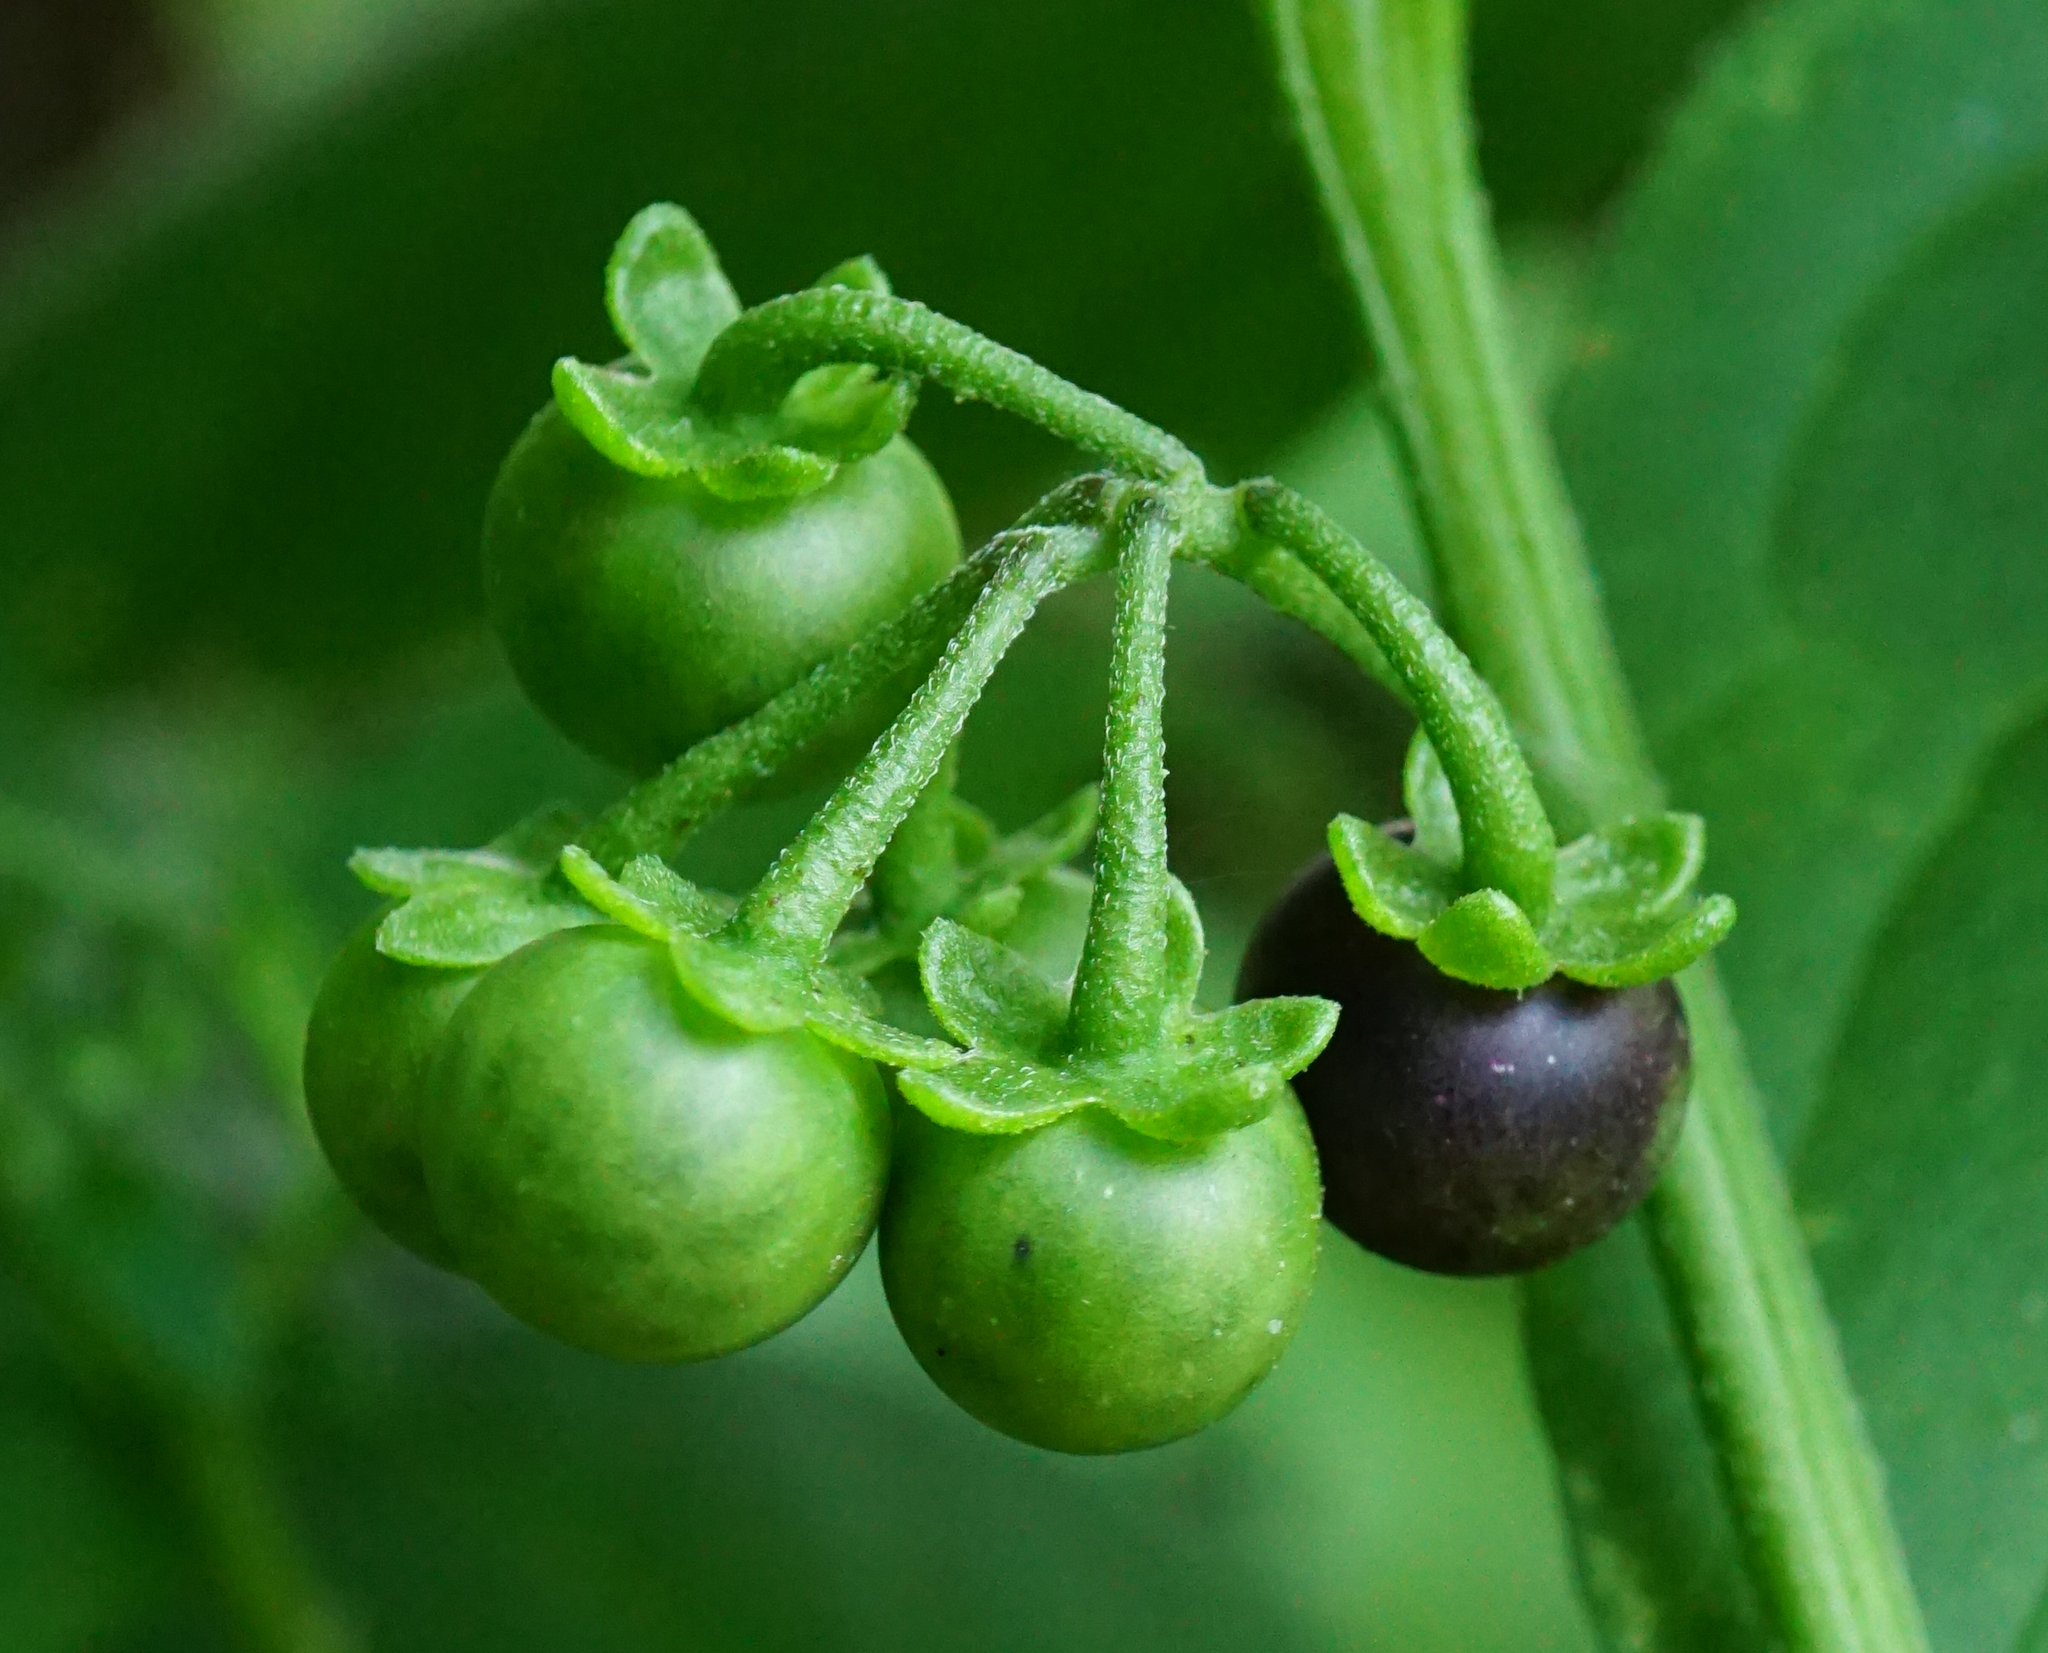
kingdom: Plantae
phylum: Tracheophyta
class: Magnoliopsida
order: Solanales
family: Solanaceae
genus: Solanum
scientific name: Solanum nigrum
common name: Black nightshade
